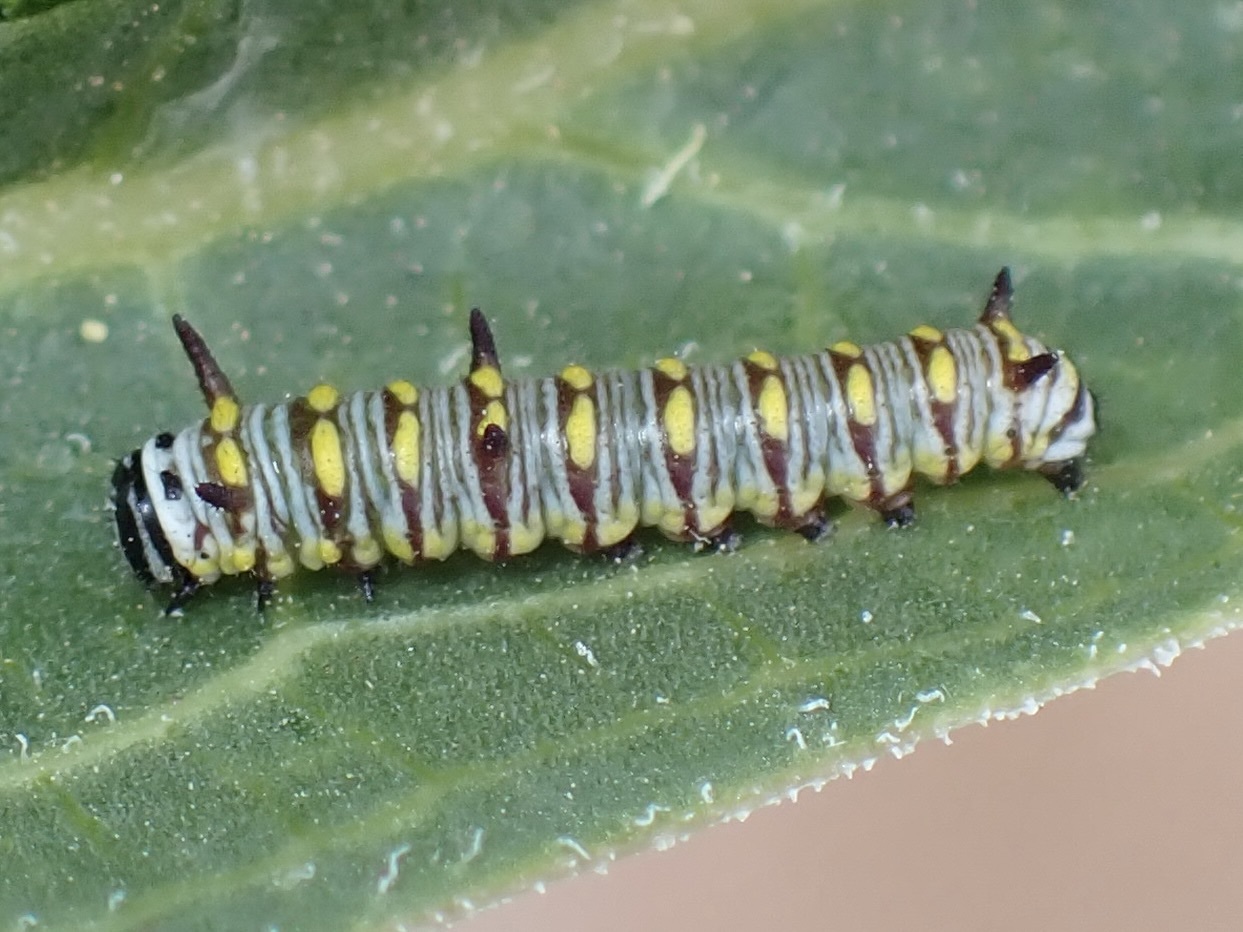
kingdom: Animalia
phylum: Arthropoda
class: Insecta
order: Lepidoptera
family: Nymphalidae
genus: Danaus
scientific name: Danaus gilippus
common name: Queen
